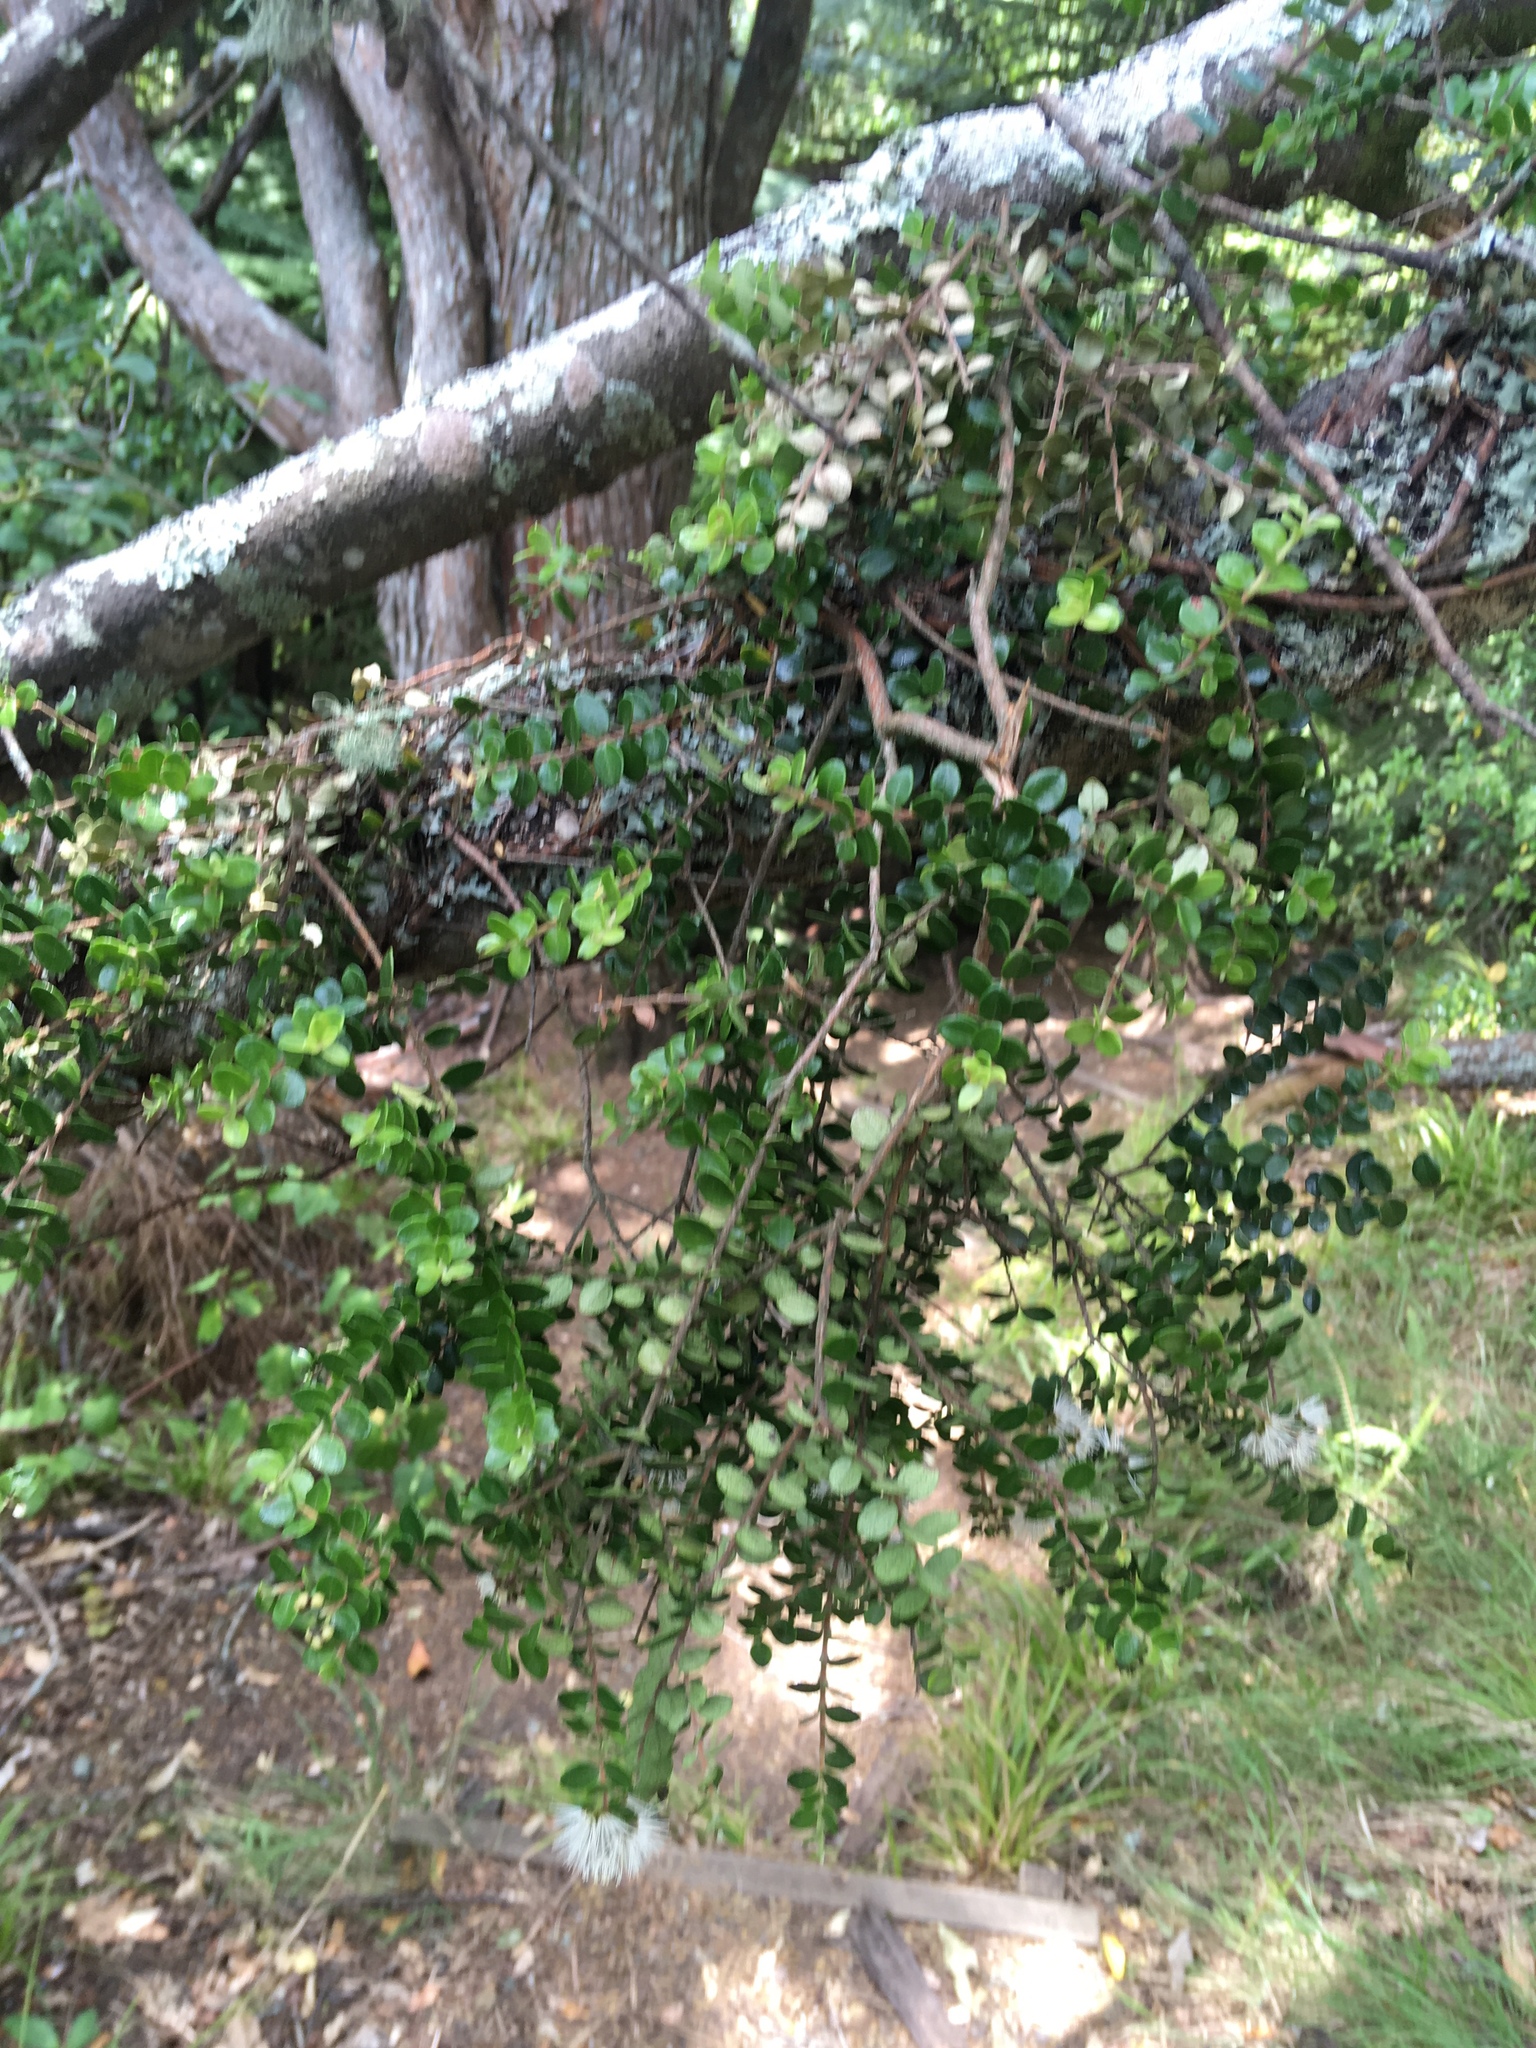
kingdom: Plantae
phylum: Tracheophyta
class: Magnoliopsida
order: Myrtales
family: Myrtaceae
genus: Metrosideros
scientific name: Metrosideros perforata
